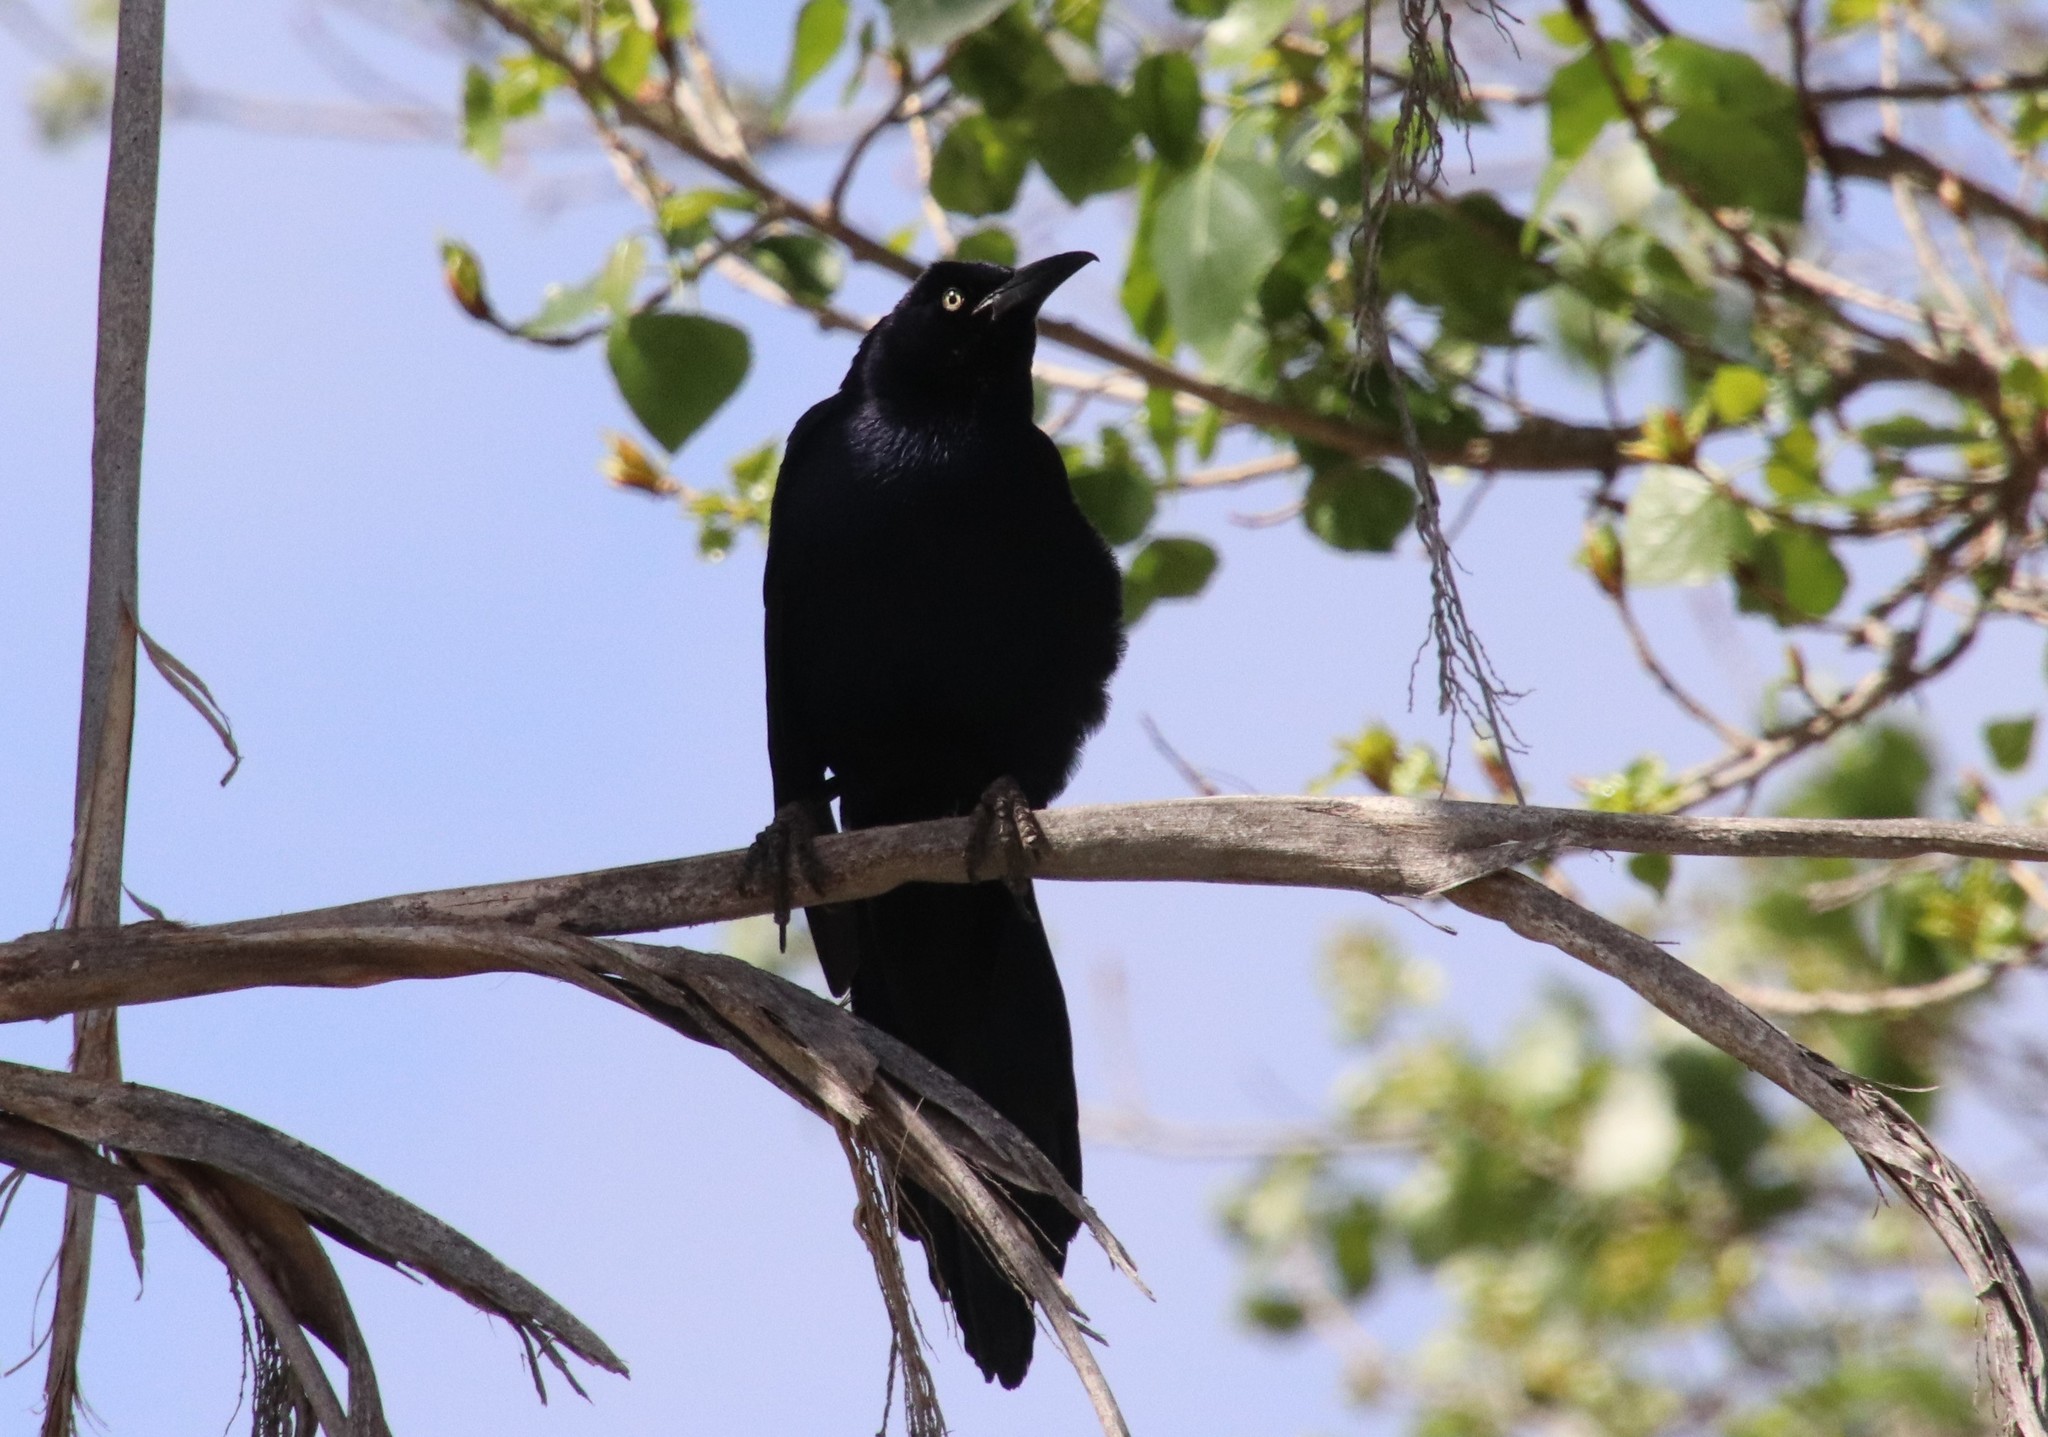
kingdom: Animalia
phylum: Chordata
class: Aves
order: Passeriformes
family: Icteridae
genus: Quiscalus
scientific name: Quiscalus mexicanus
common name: Great-tailed grackle
